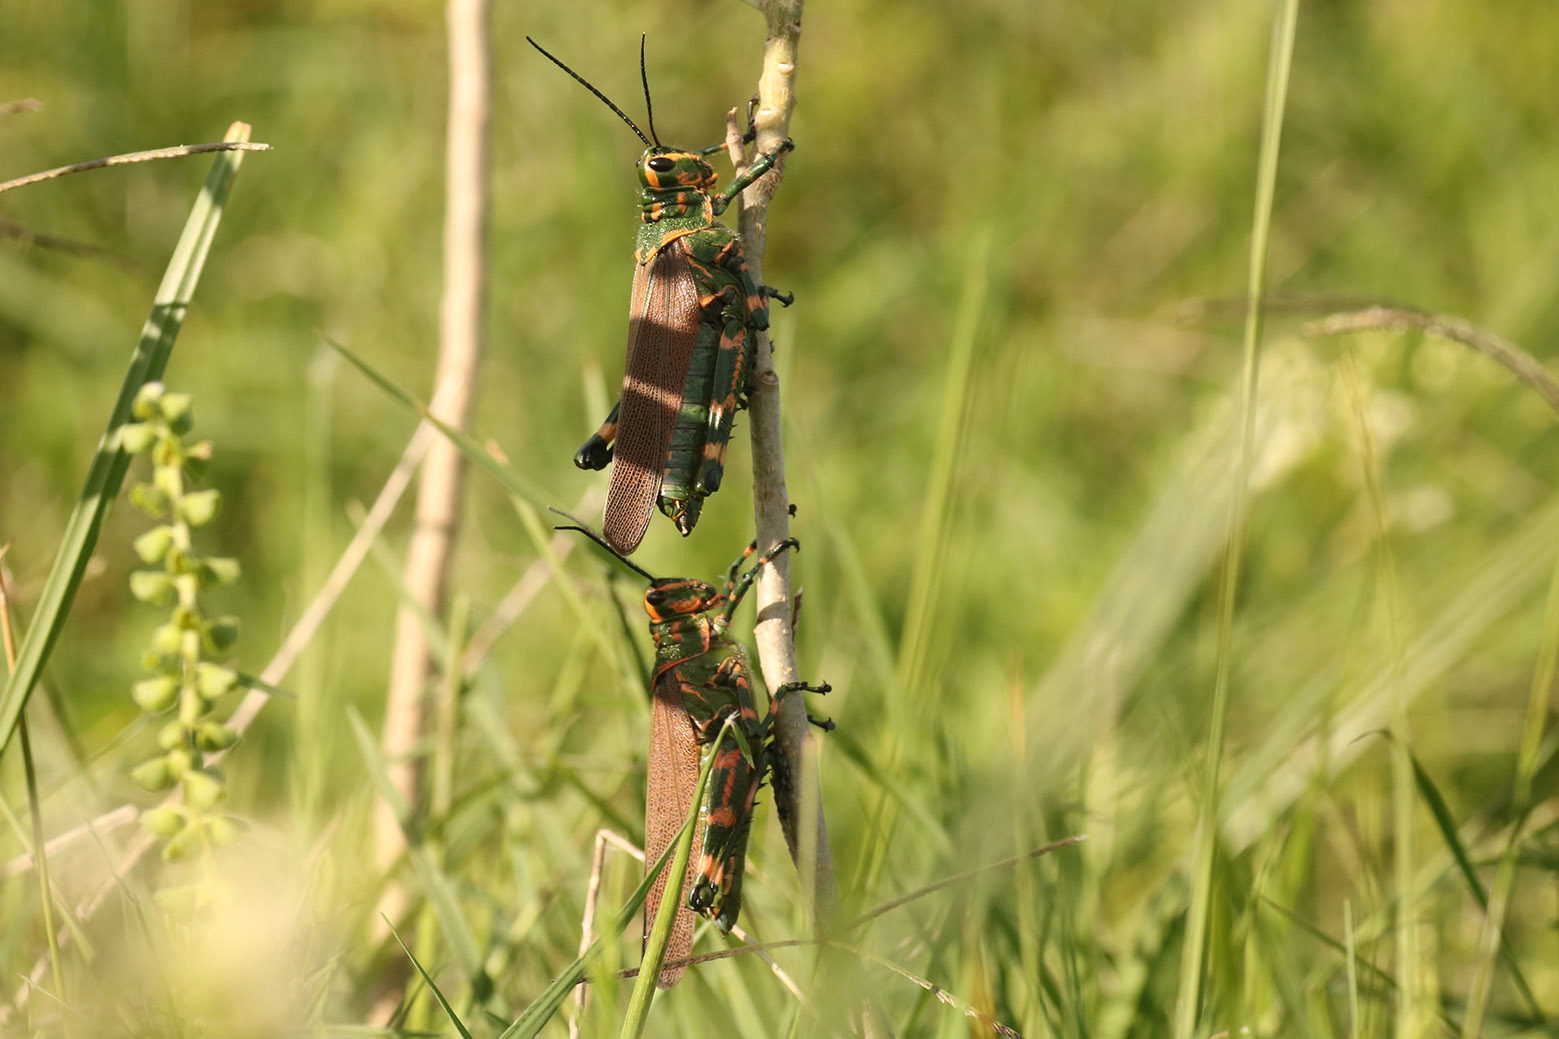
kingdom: Animalia
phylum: Arthropoda
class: Insecta
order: Orthoptera
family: Romaleidae
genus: Chromacris
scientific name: Chromacris speciosa
